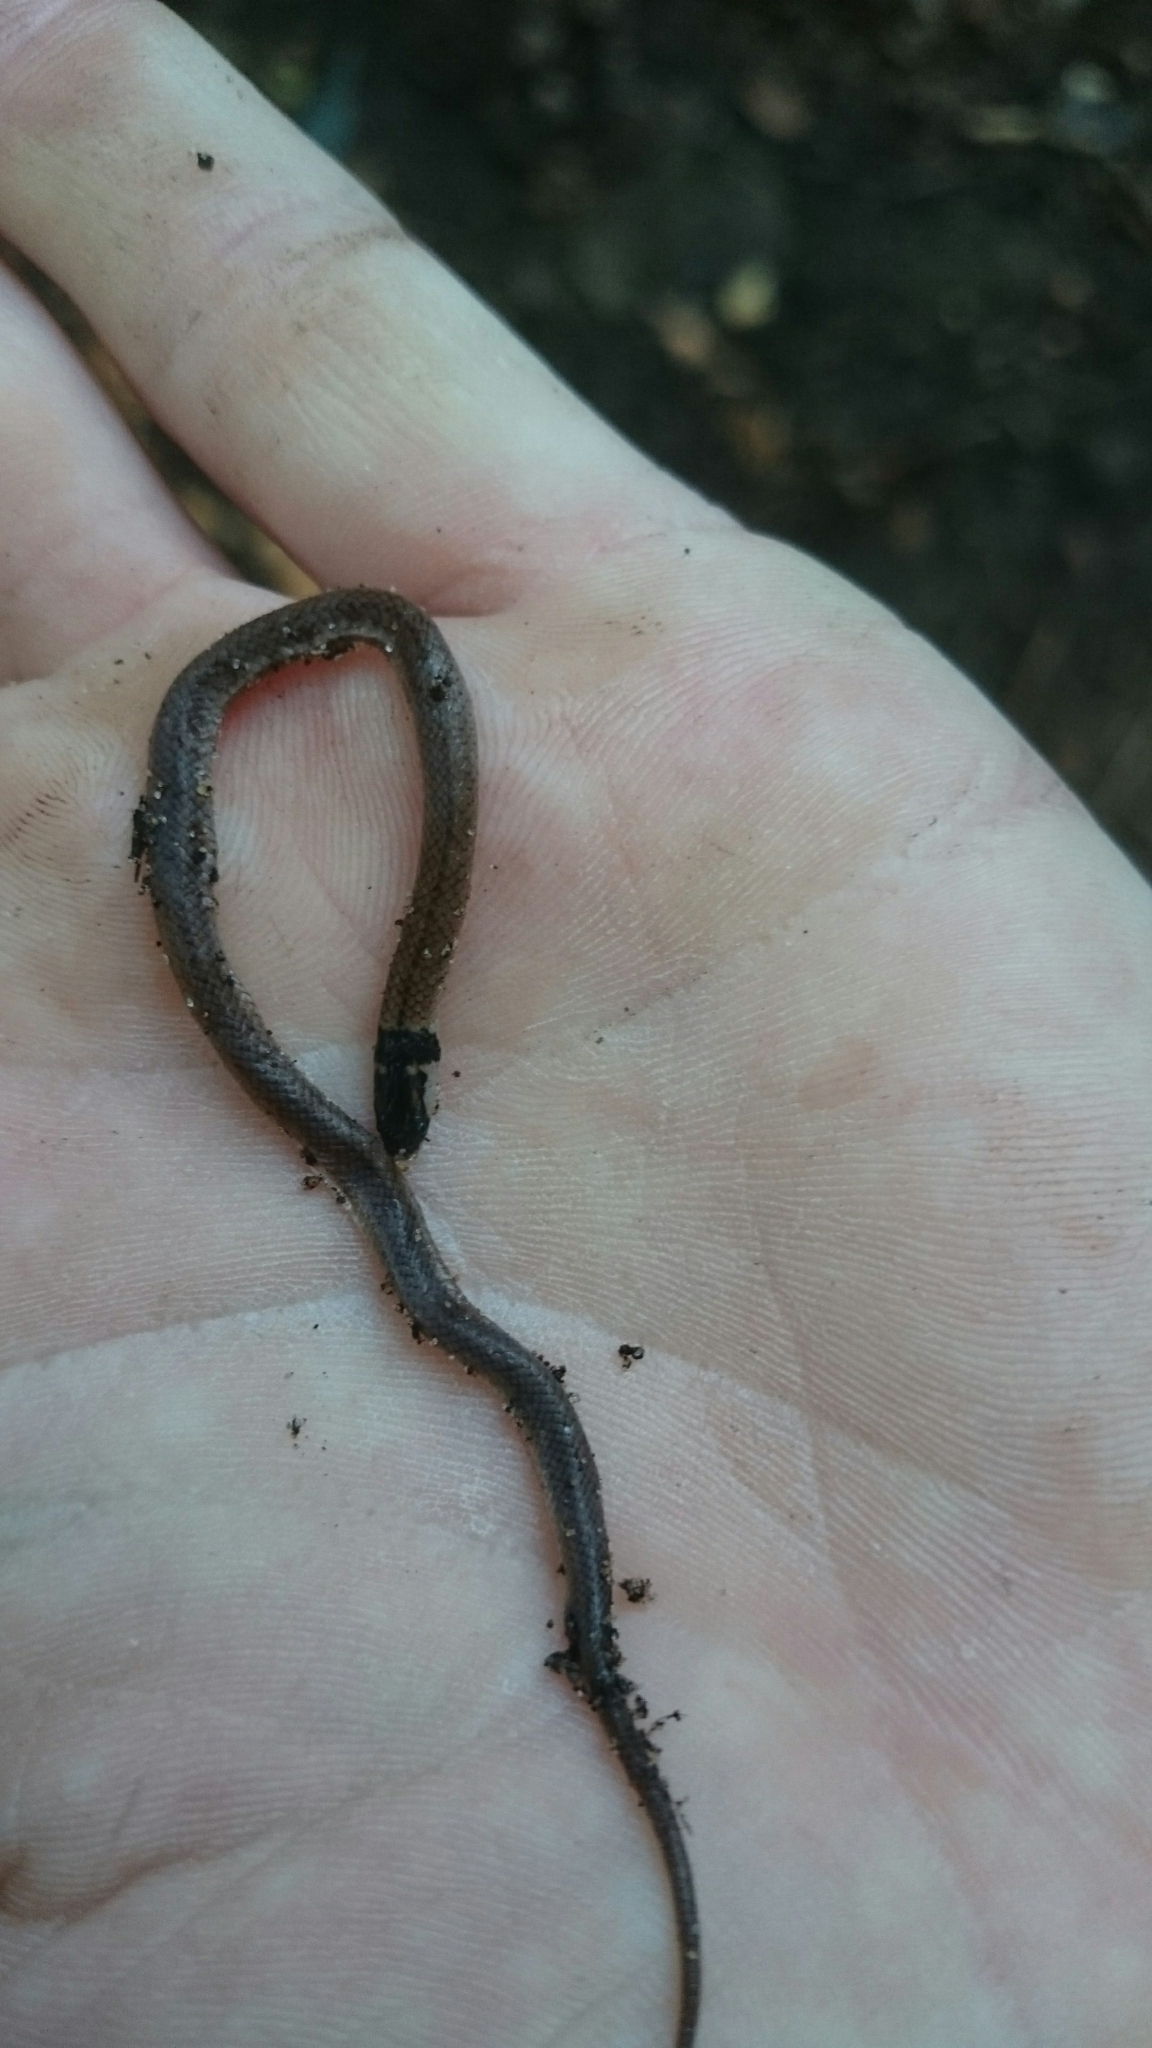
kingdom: Animalia
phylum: Chordata
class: Squamata
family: Atractaspididae
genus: Aparallactus
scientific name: Aparallactus capensis
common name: Cape centipede eater
